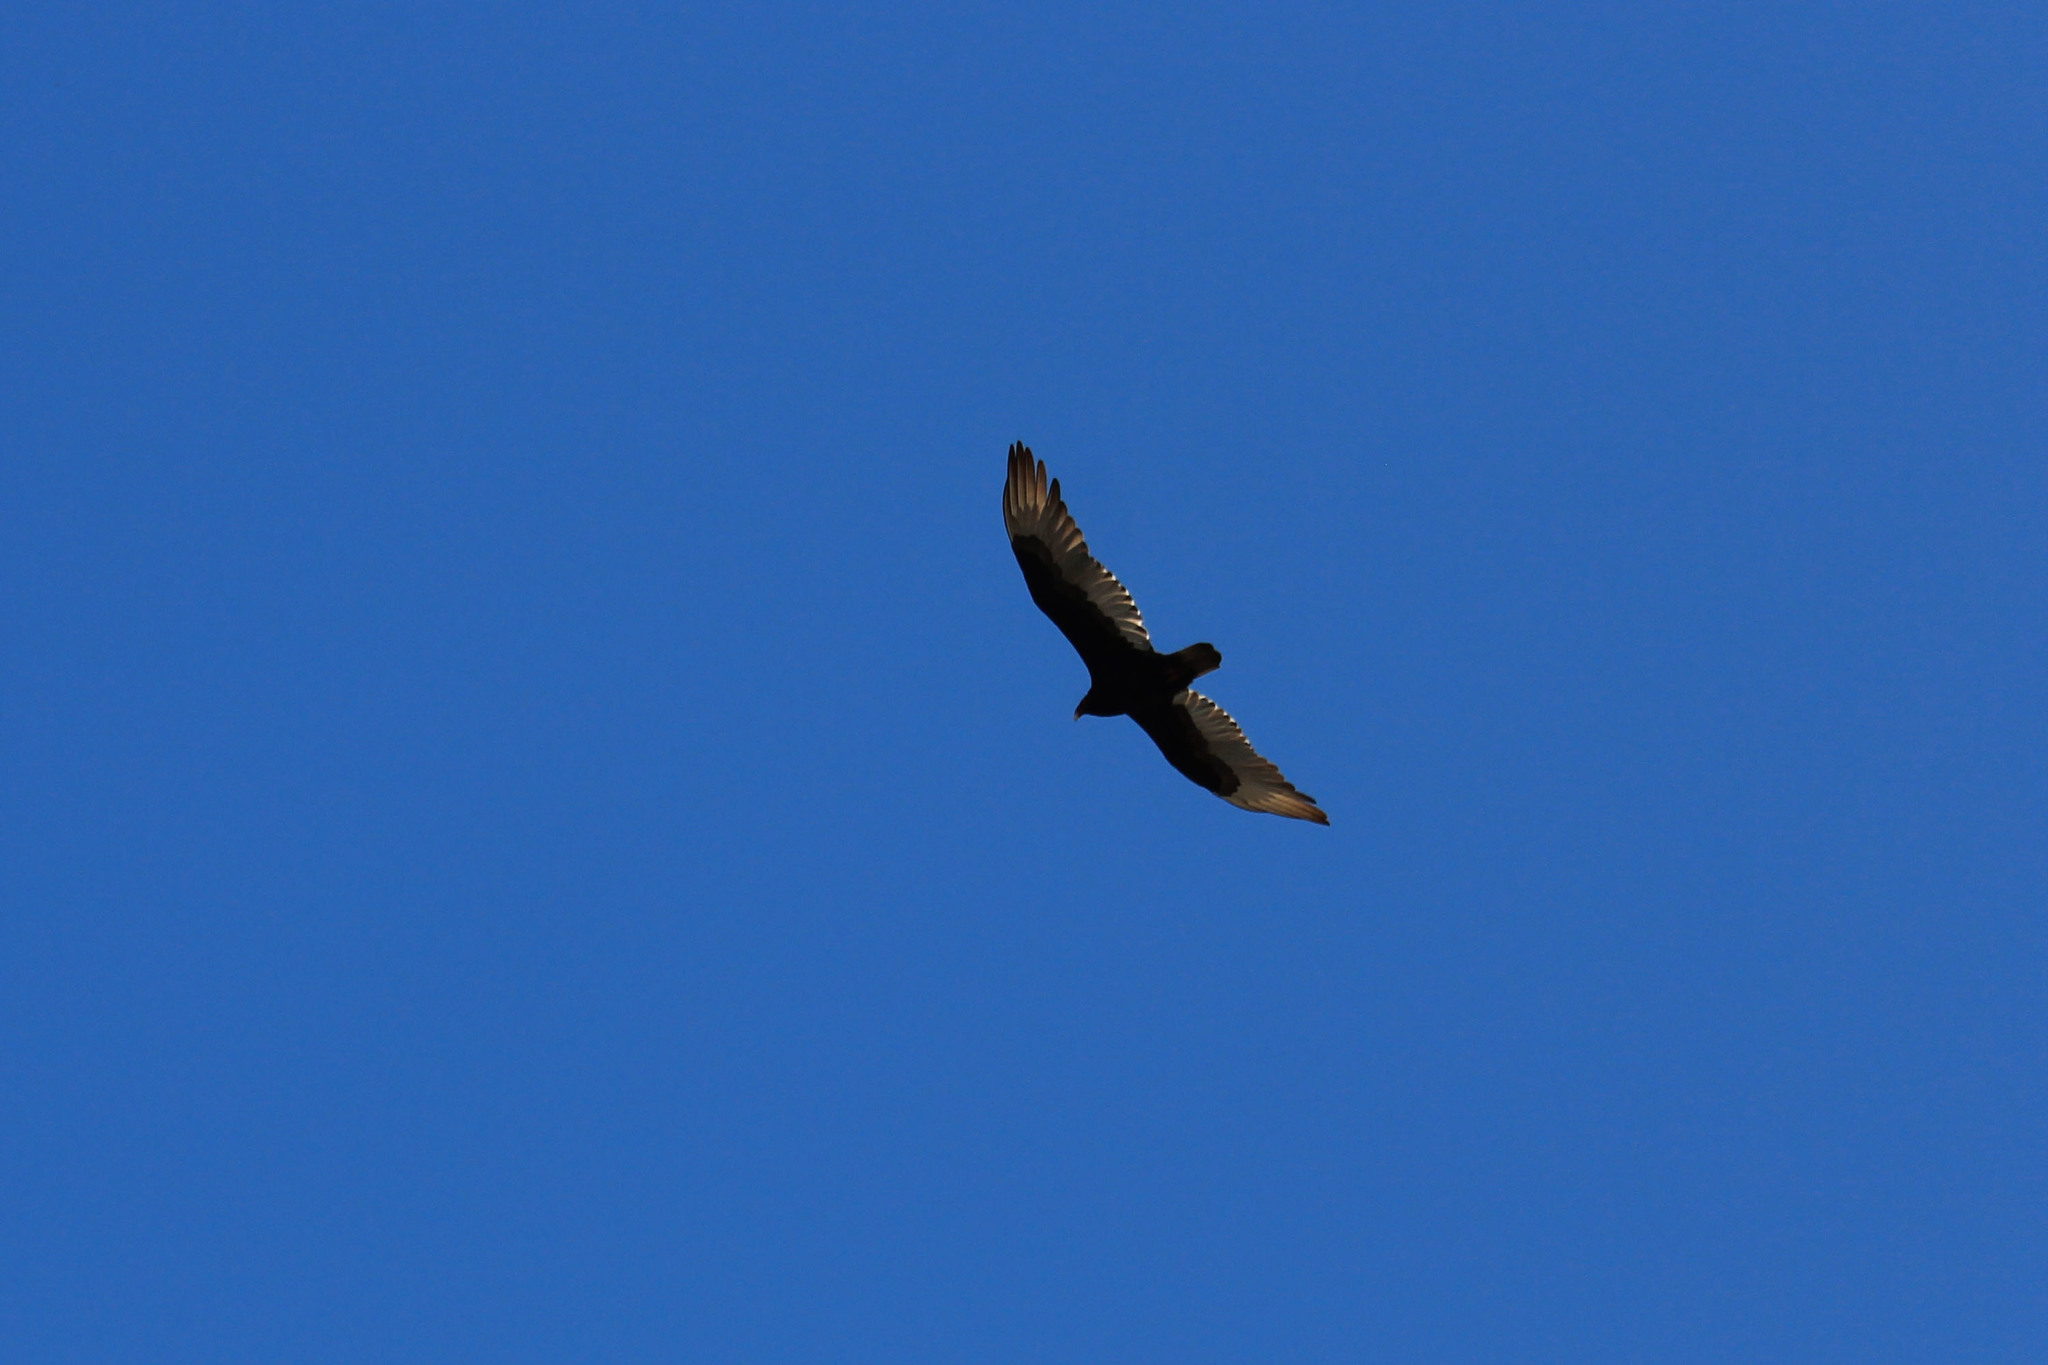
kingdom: Animalia
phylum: Chordata
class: Aves
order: Accipitriformes
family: Cathartidae
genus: Cathartes
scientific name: Cathartes aura
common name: Turkey vulture
